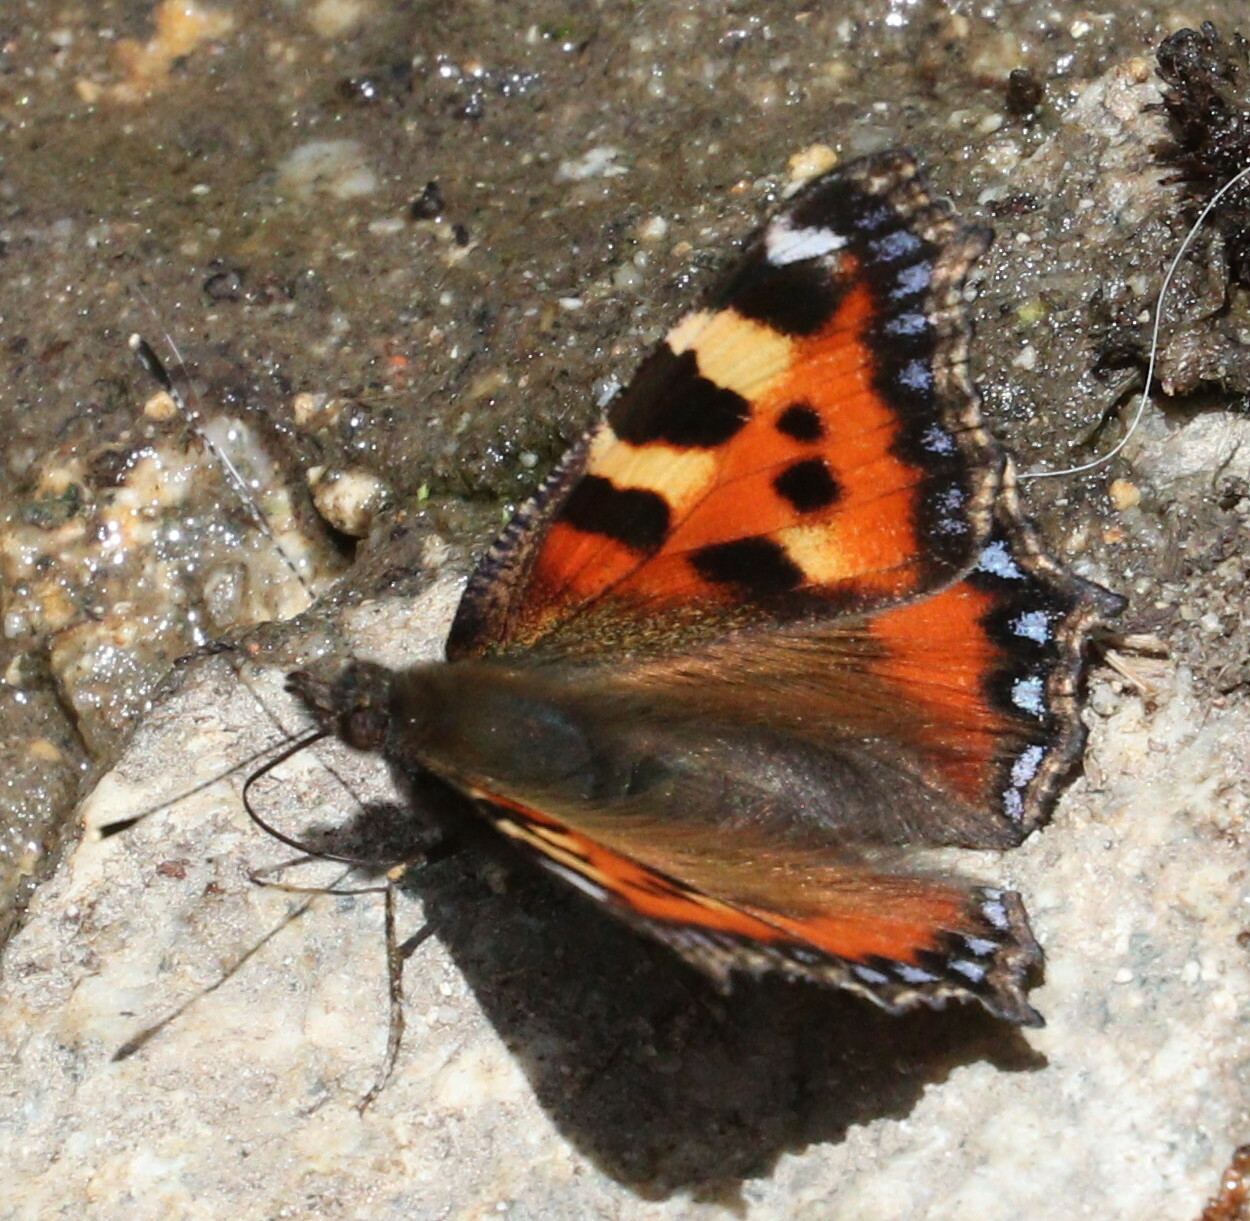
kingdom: Animalia
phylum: Arthropoda
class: Insecta
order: Lepidoptera
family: Nymphalidae
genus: Aglais
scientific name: Aglais urticae
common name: Small tortoiseshell
